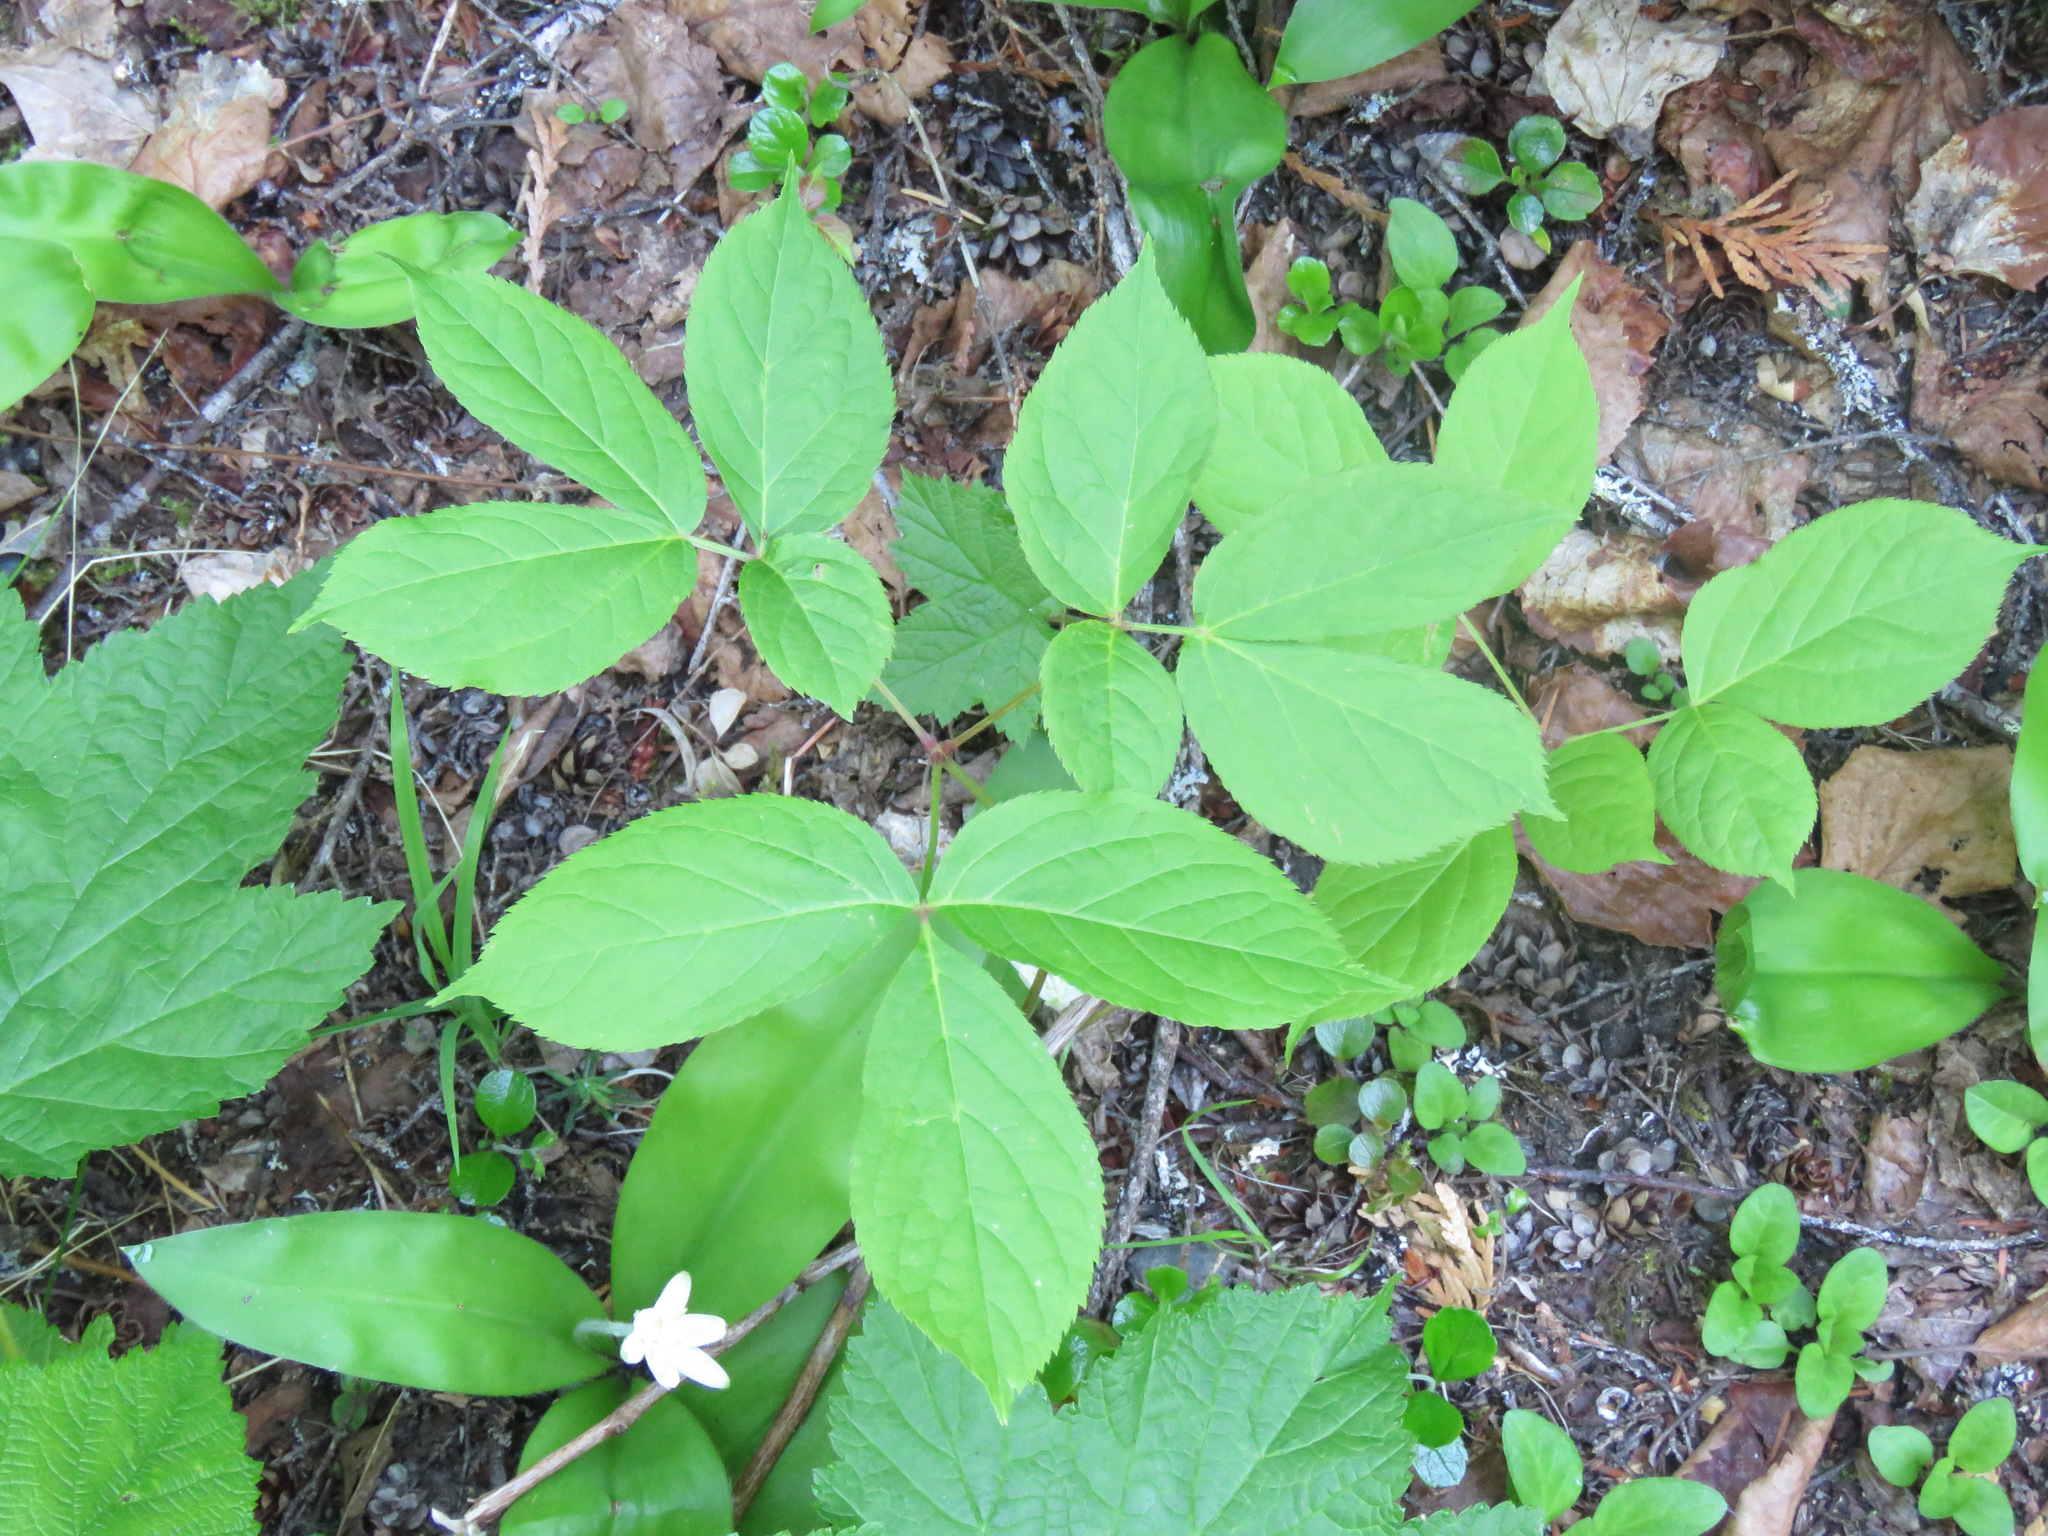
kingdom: Plantae
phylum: Tracheophyta
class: Magnoliopsida
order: Apiales
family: Araliaceae
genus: Aralia
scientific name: Aralia nudicaulis
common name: Wild sarsaparilla
